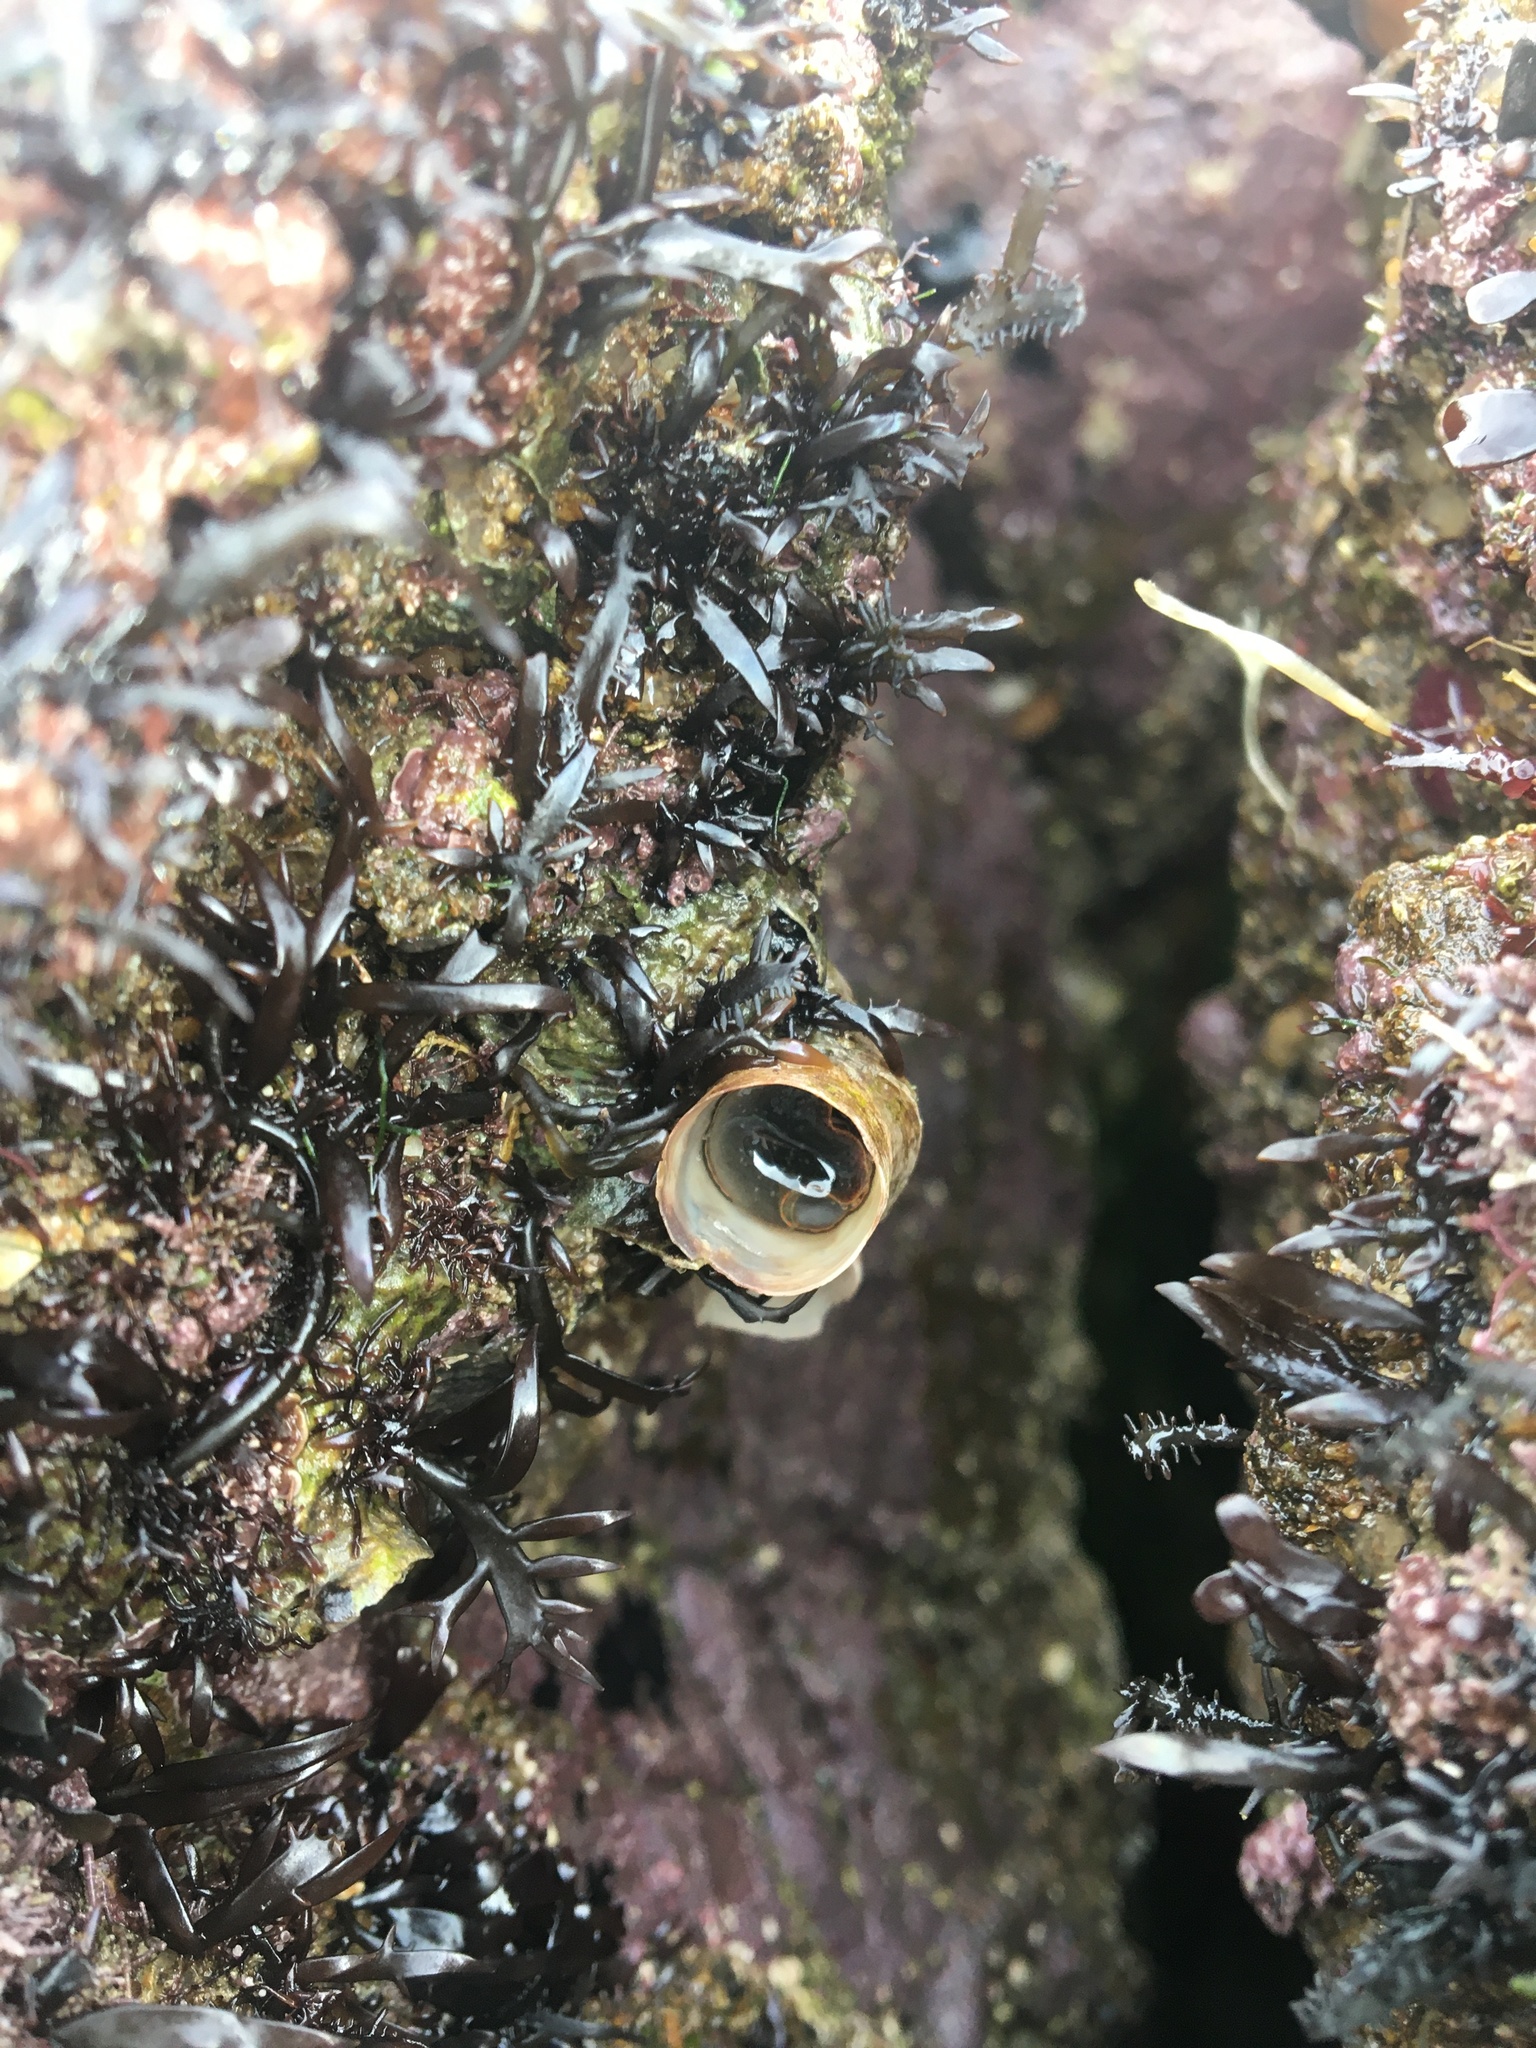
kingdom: Animalia
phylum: Mollusca
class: Gastropoda
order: Littorinimorpha
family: Vermetidae
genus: Thylacodes
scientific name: Thylacodes squamigerus
